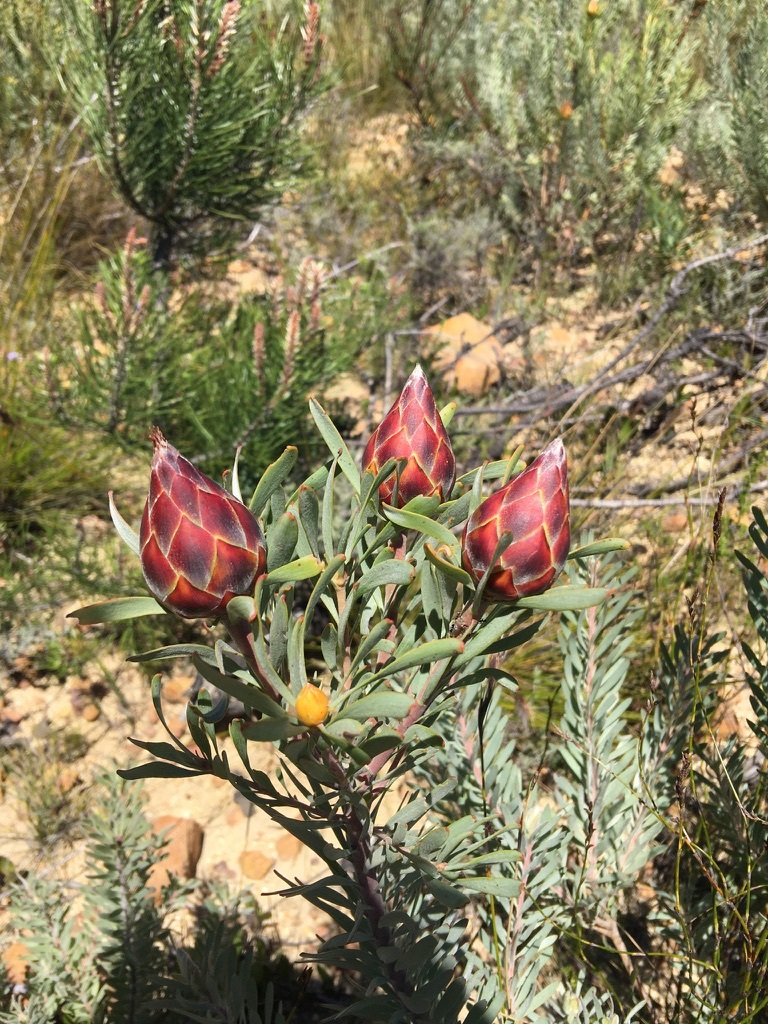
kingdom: Plantae
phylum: Tracheophyta
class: Magnoliopsida
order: Proteales
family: Proteaceae
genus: Leucadendron
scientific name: Leucadendron rubrum
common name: Spinning top
